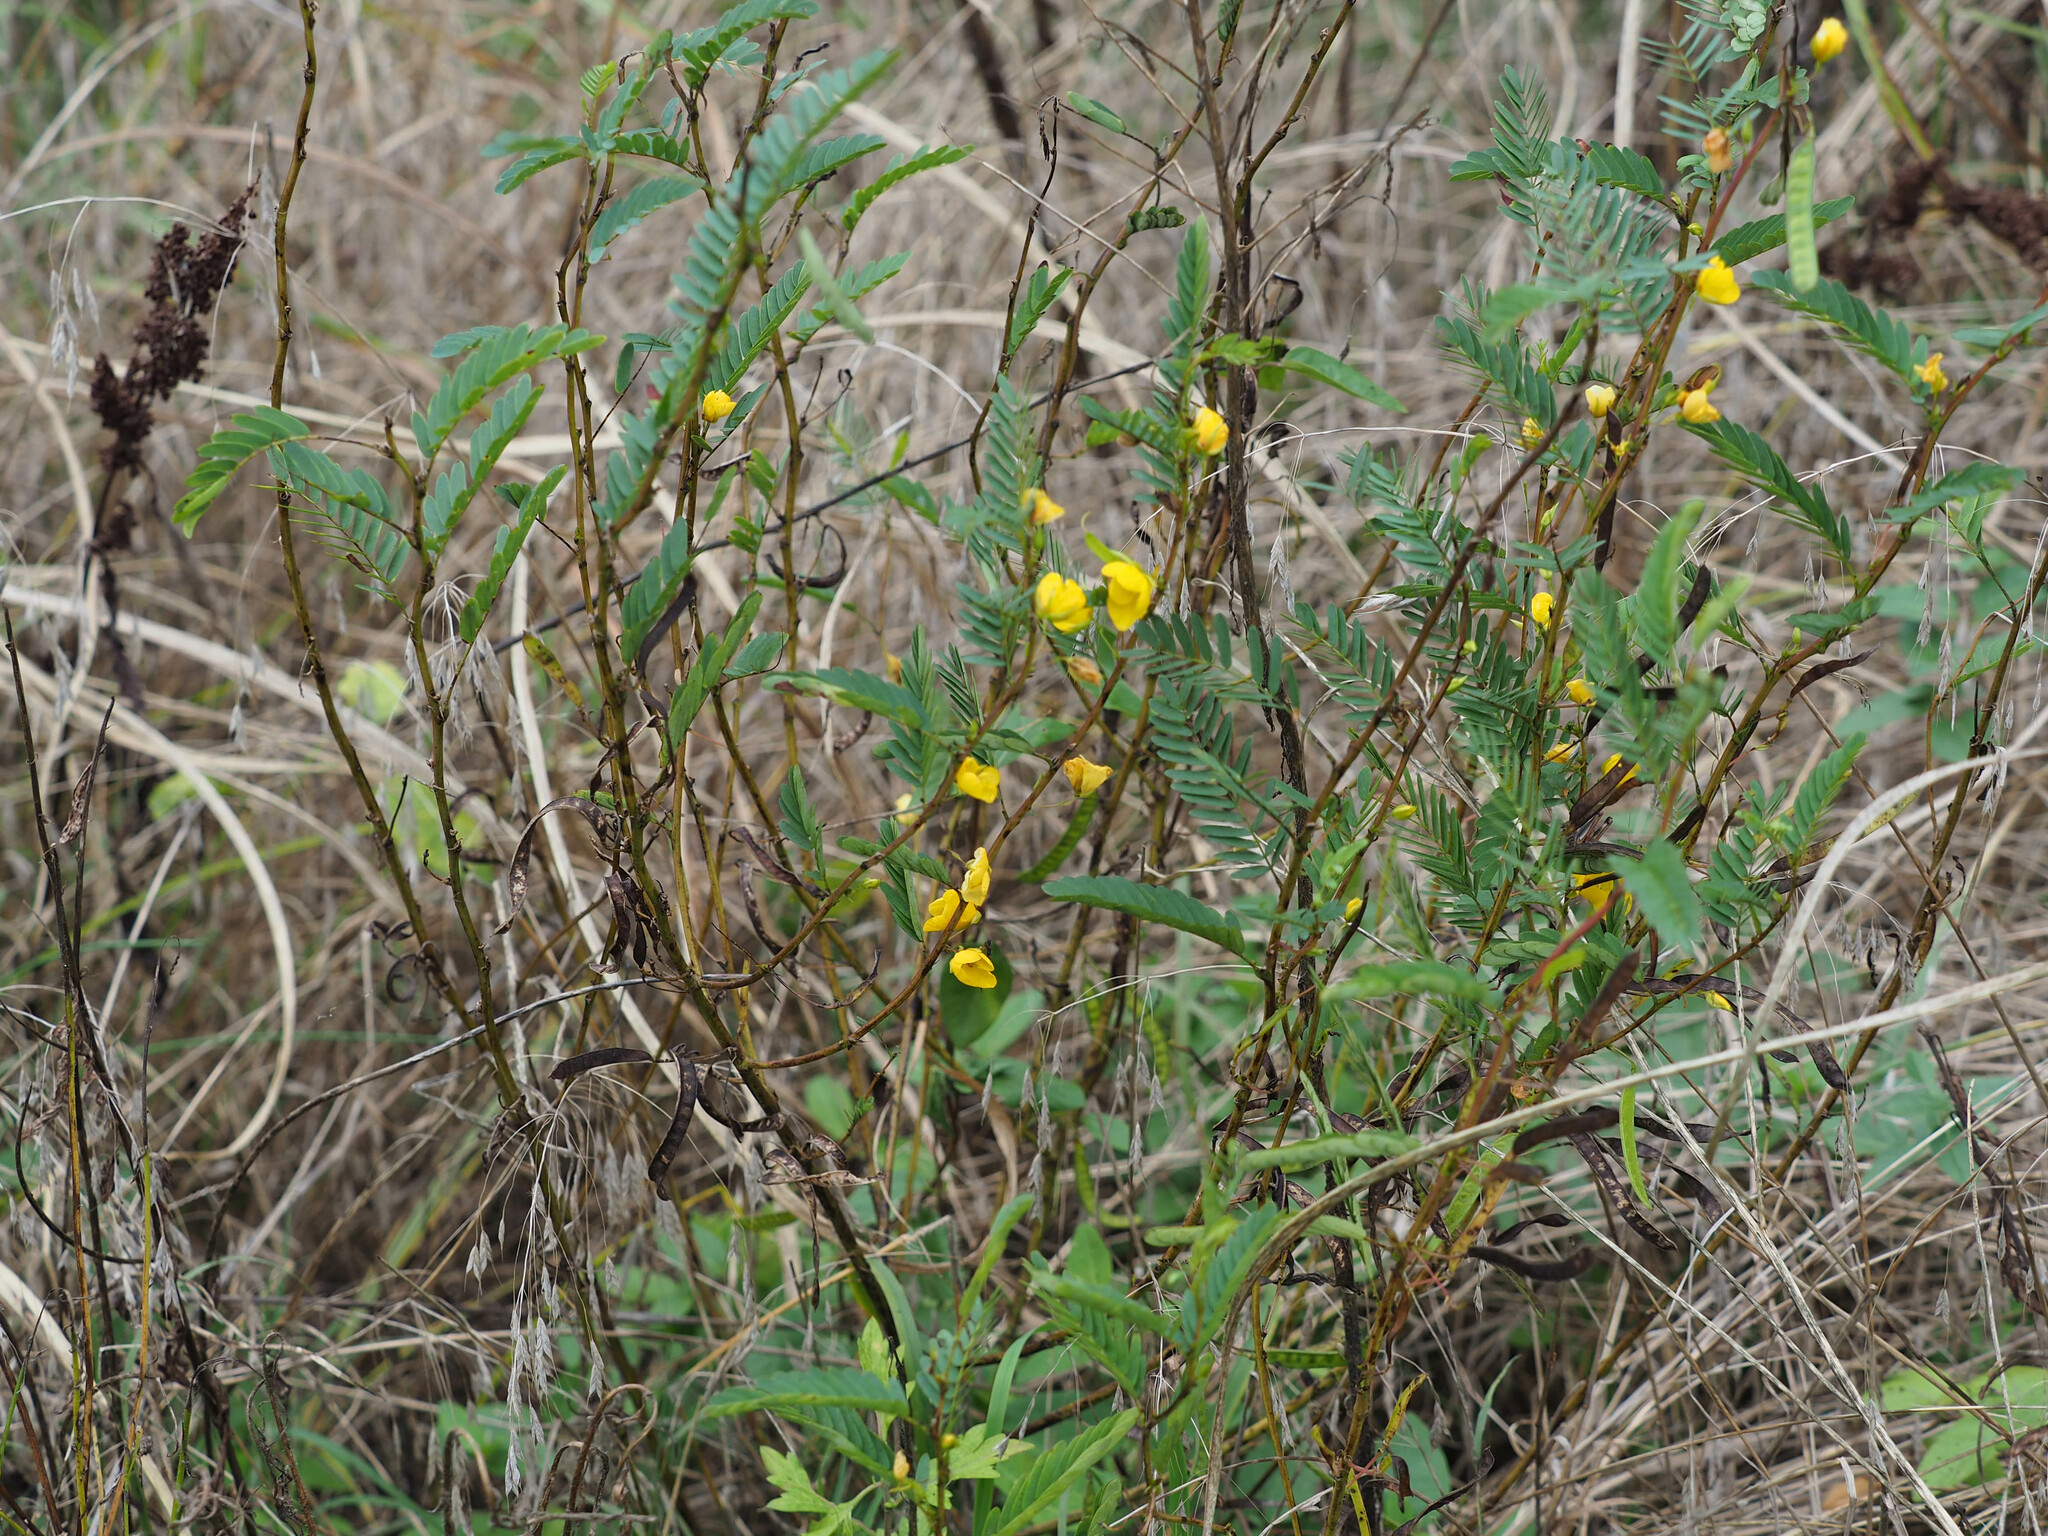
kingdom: Plantae
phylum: Tracheophyta
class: Magnoliopsida
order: Fabales
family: Fabaceae
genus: Chamaecrista
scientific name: Chamaecrista fasciculata
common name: Golden cassia
